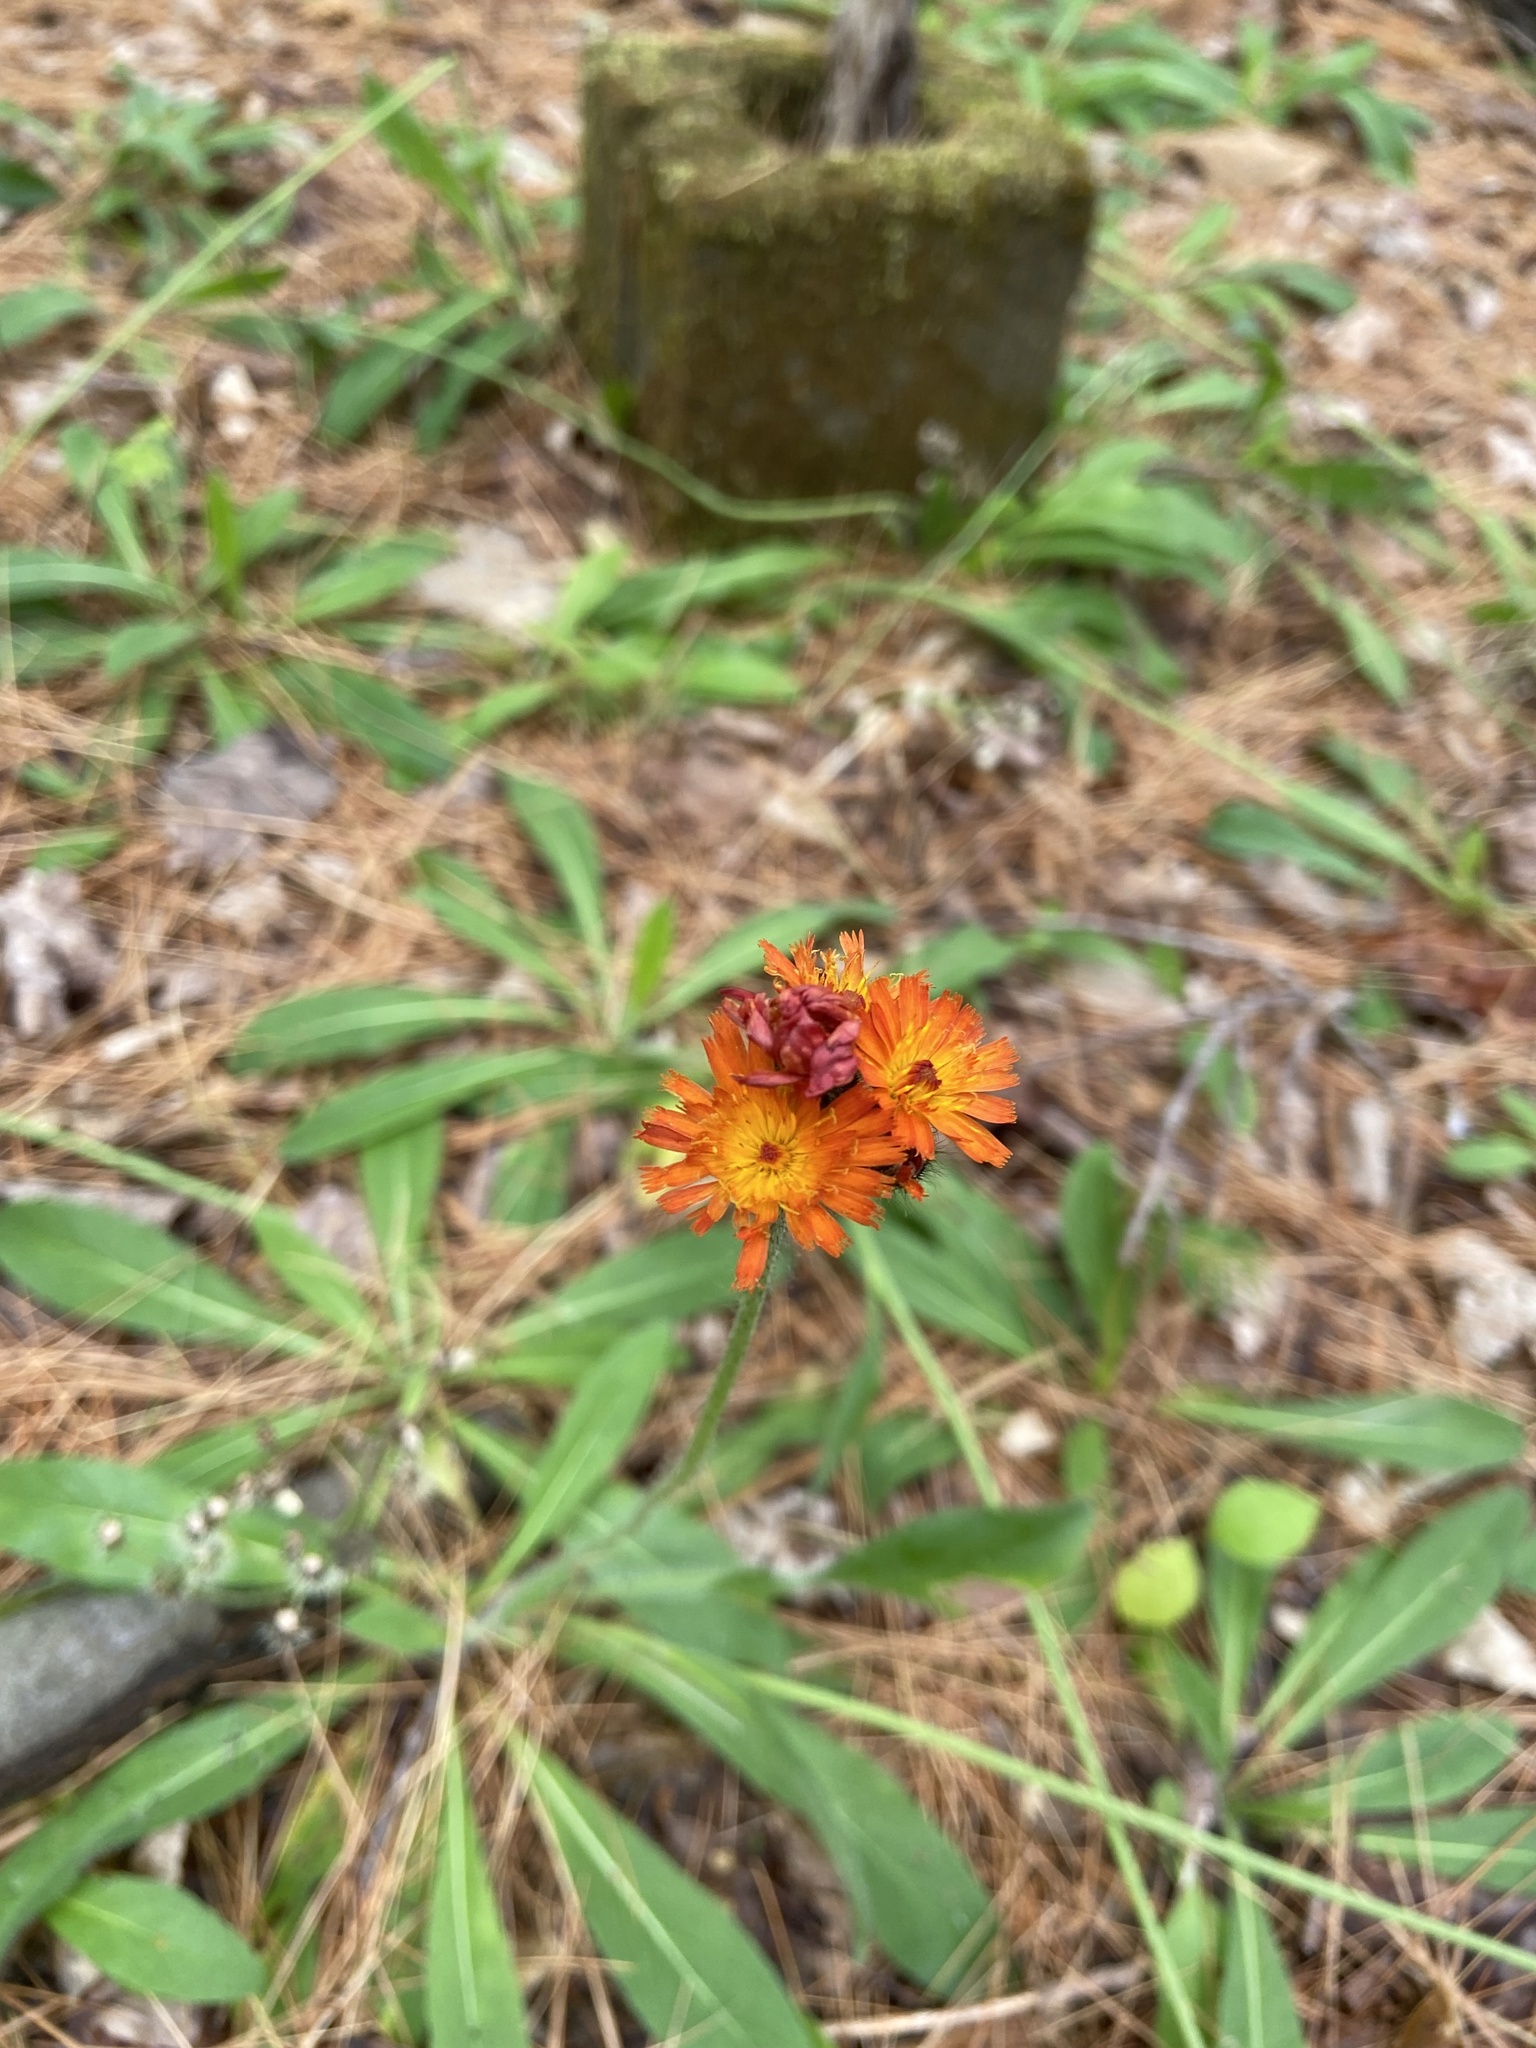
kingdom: Plantae
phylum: Tracheophyta
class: Magnoliopsida
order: Asterales
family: Asteraceae
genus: Pilosella
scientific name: Pilosella aurantiaca
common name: Fox-and-cubs
